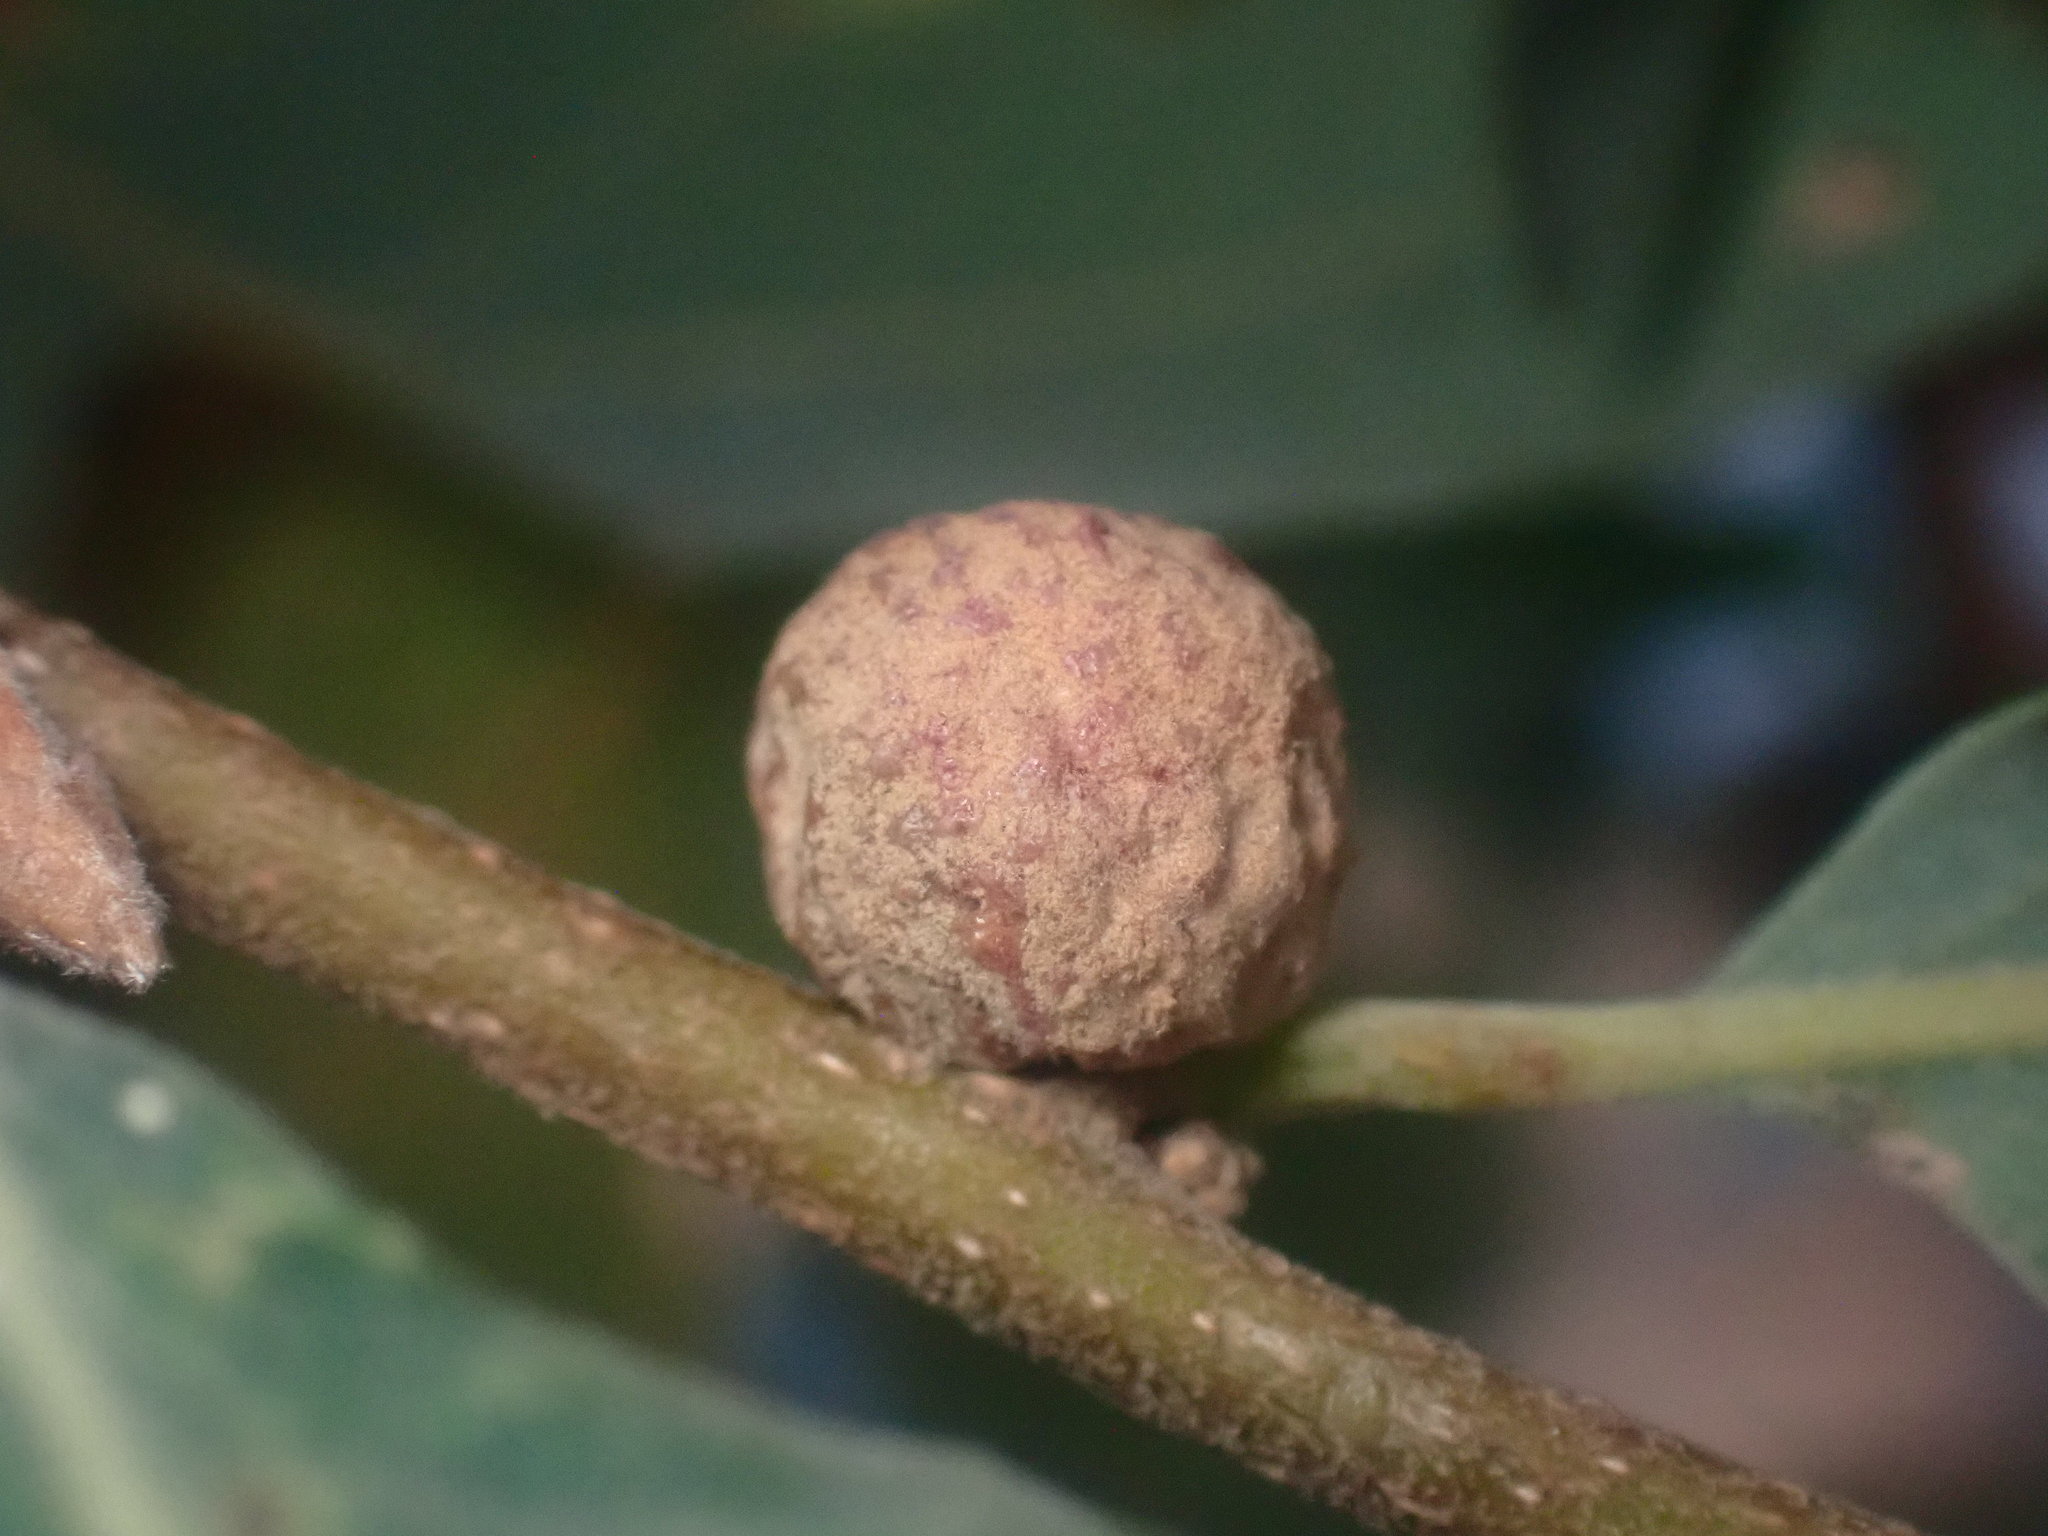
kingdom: Animalia
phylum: Arthropoda
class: Insecta
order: Hymenoptera
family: Cynipidae
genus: Cynips
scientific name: Cynips conspicua
